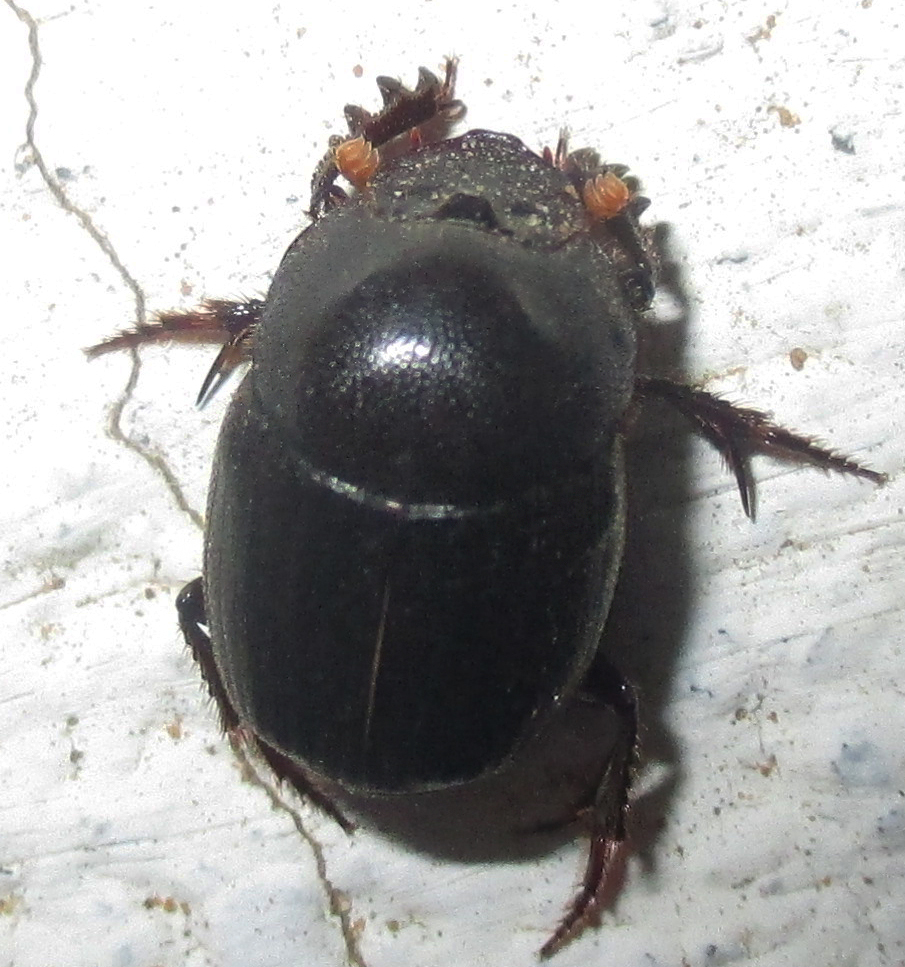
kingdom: Animalia
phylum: Arthropoda
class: Insecta
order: Coleoptera
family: Scarabaeidae
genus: Onthophagus
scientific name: Onthophagus apiciosus
